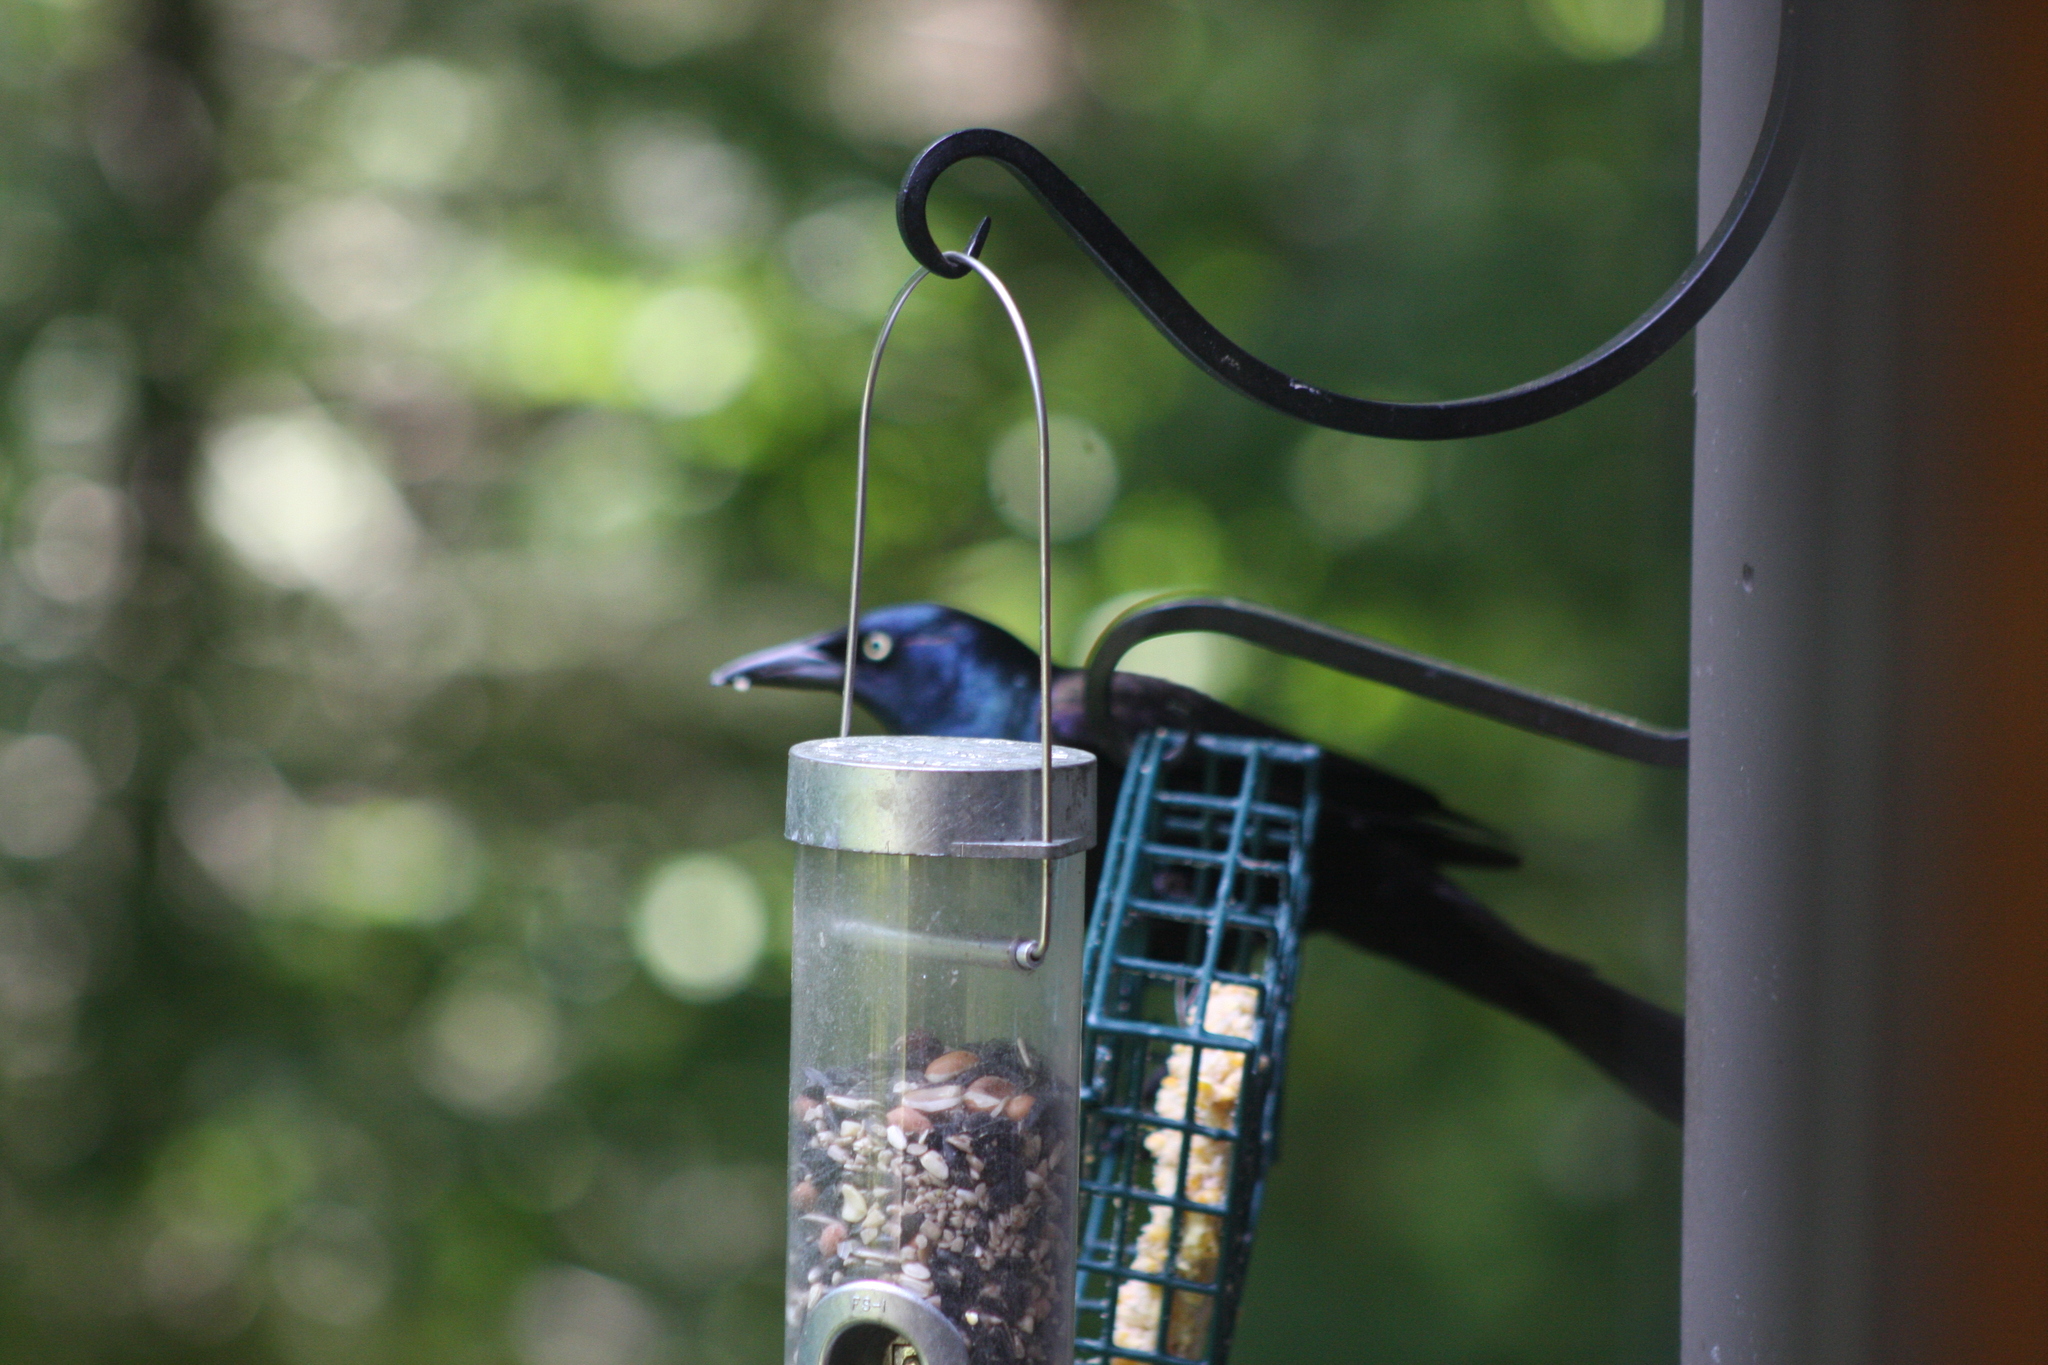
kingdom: Animalia
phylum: Chordata
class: Aves
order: Passeriformes
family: Icteridae
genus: Quiscalus
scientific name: Quiscalus quiscula
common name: Common grackle
